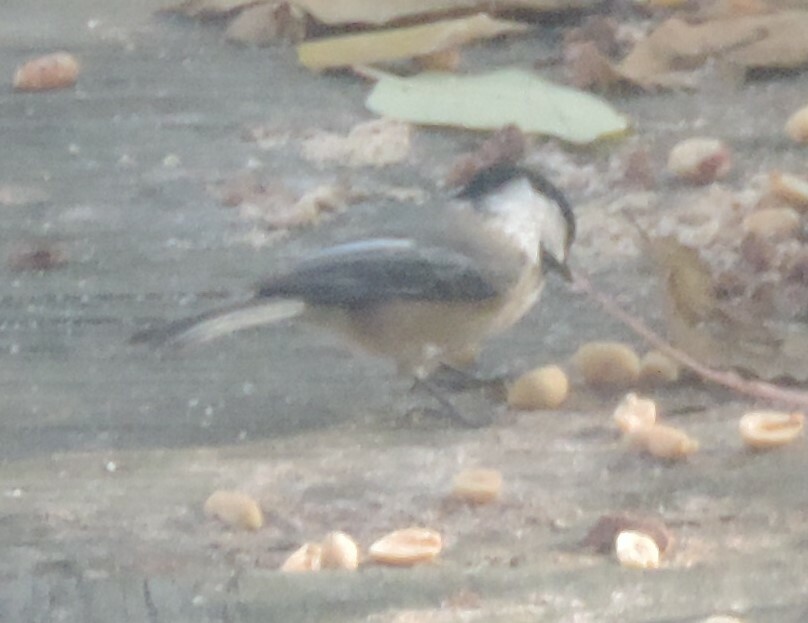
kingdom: Animalia
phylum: Chordata
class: Aves
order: Passeriformes
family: Paridae
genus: Poecile
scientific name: Poecile atricapillus
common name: Black-capped chickadee
